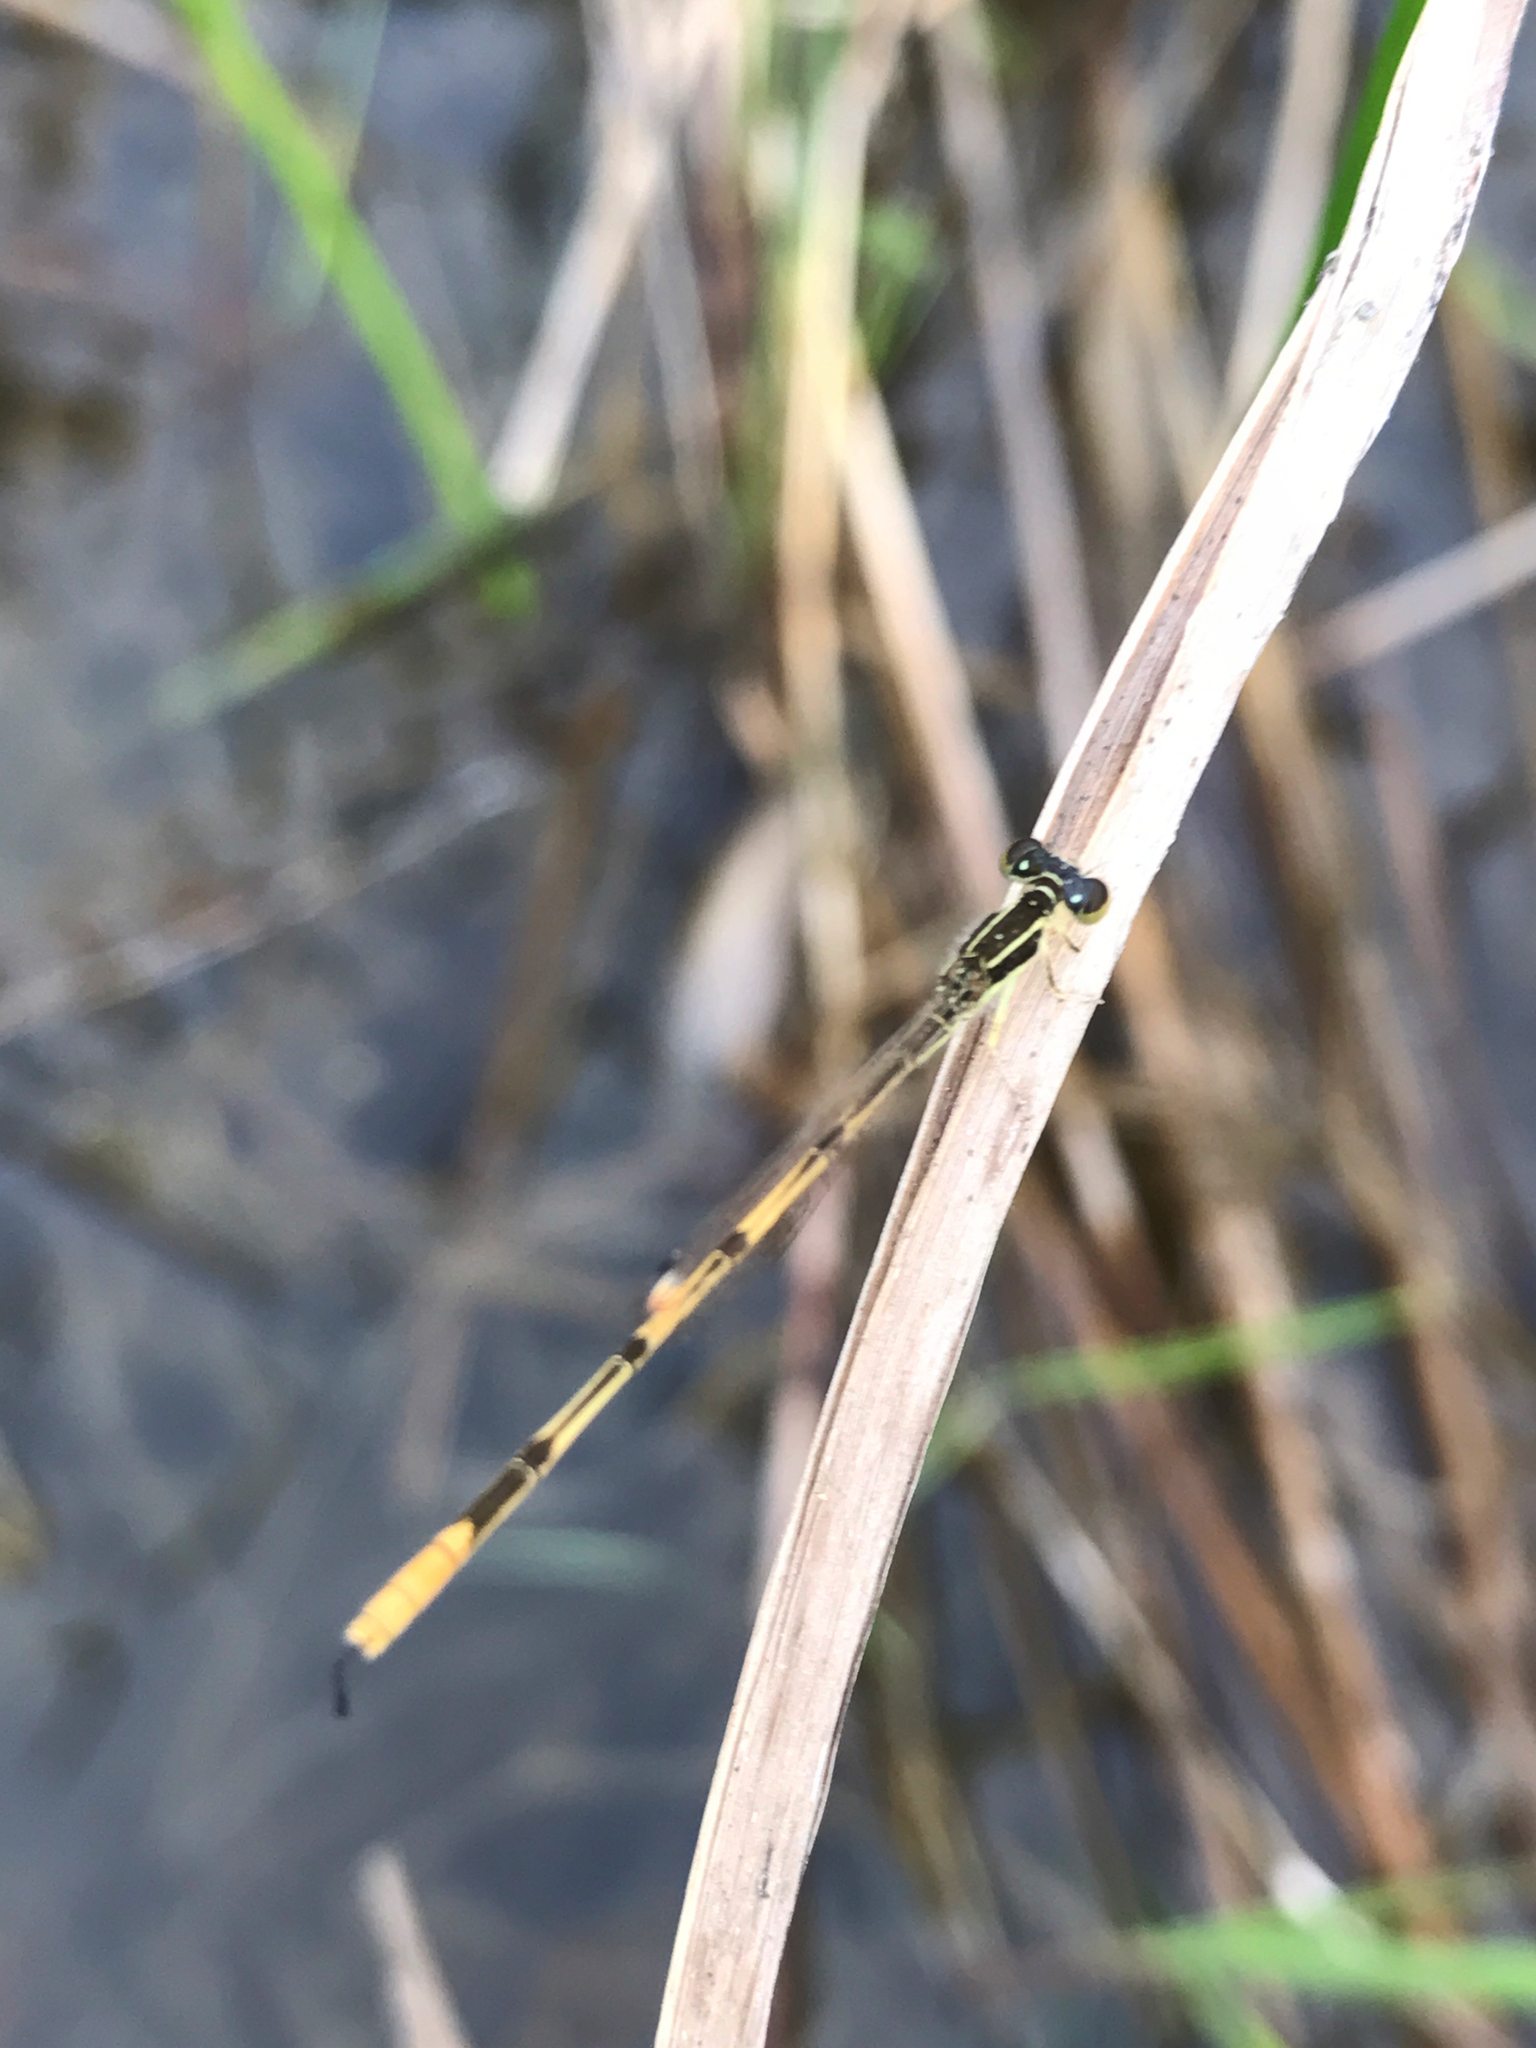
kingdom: Animalia
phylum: Arthropoda
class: Insecta
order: Odonata
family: Coenagrionidae
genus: Ischnura
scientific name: Ischnura hastata
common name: Citrine forktail
